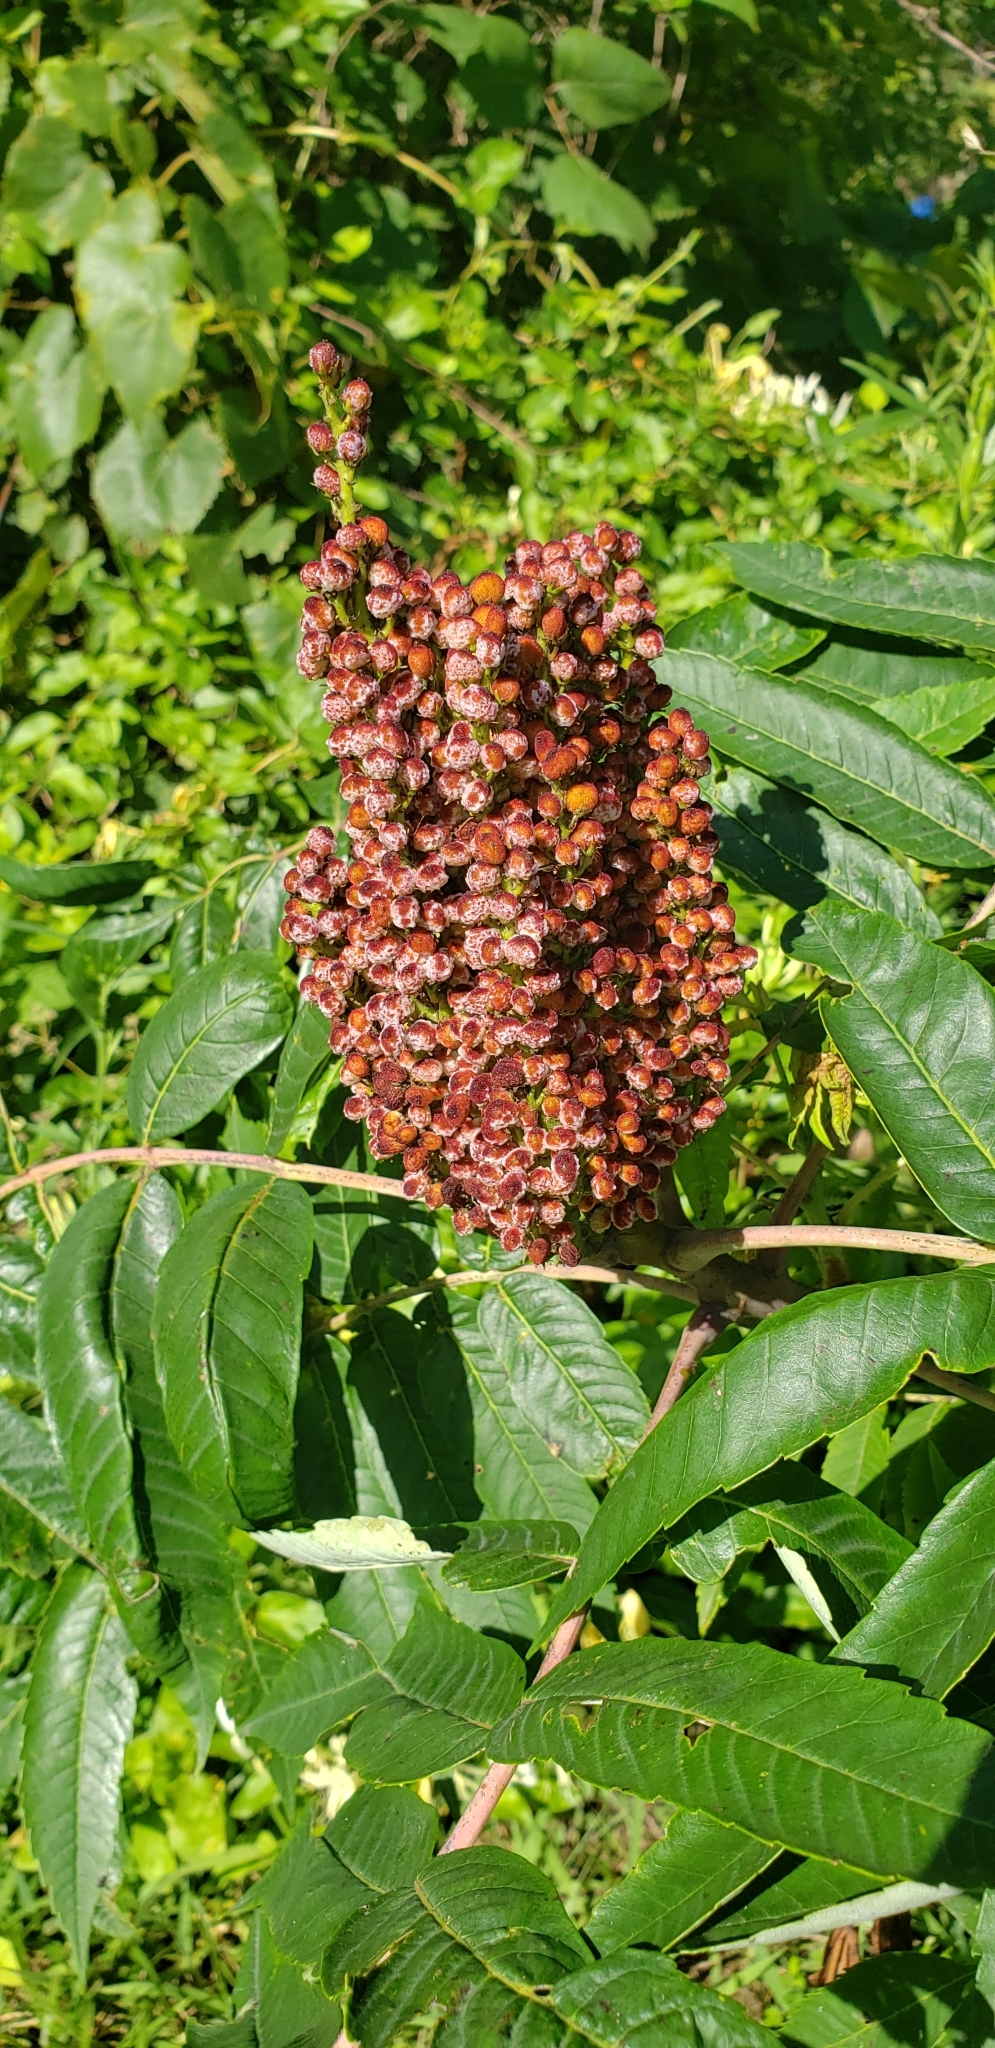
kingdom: Plantae
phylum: Tracheophyta
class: Magnoliopsida
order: Sapindales
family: Anacardiaceae
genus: Rhus
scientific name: Rhus glabra
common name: Scarlet sumac
